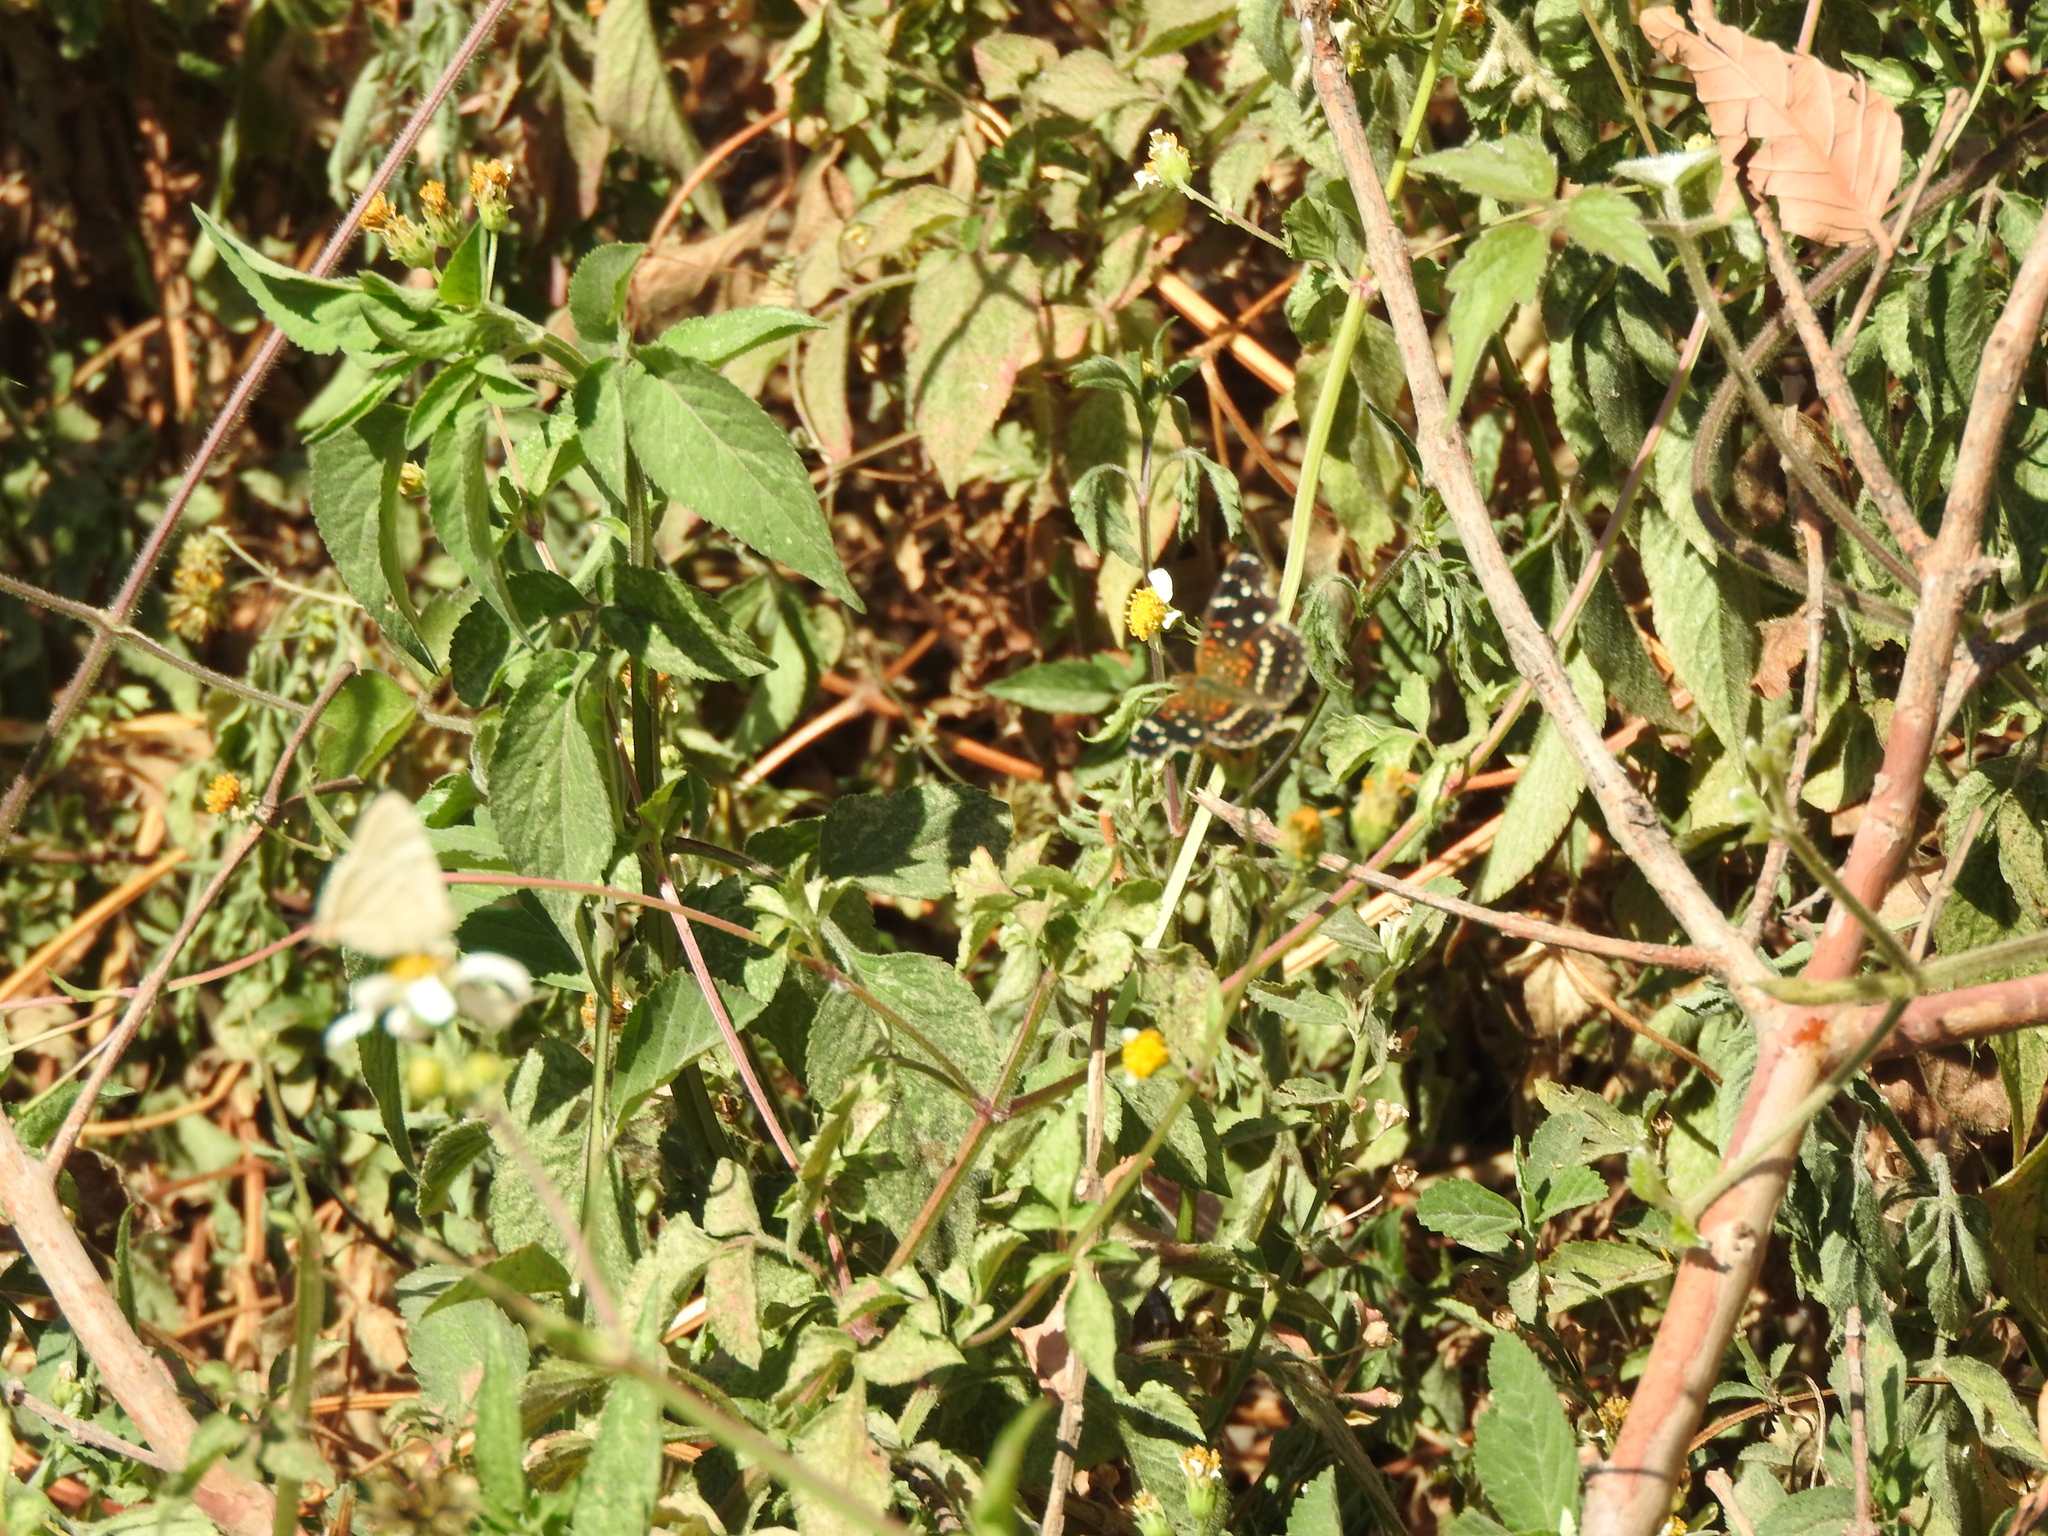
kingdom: Animalia
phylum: Arthropoda
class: Insecta
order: Lepidoptera
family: Nymphalidae
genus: Anthanassa
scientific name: Anthanassa texana
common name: Texan crescent
